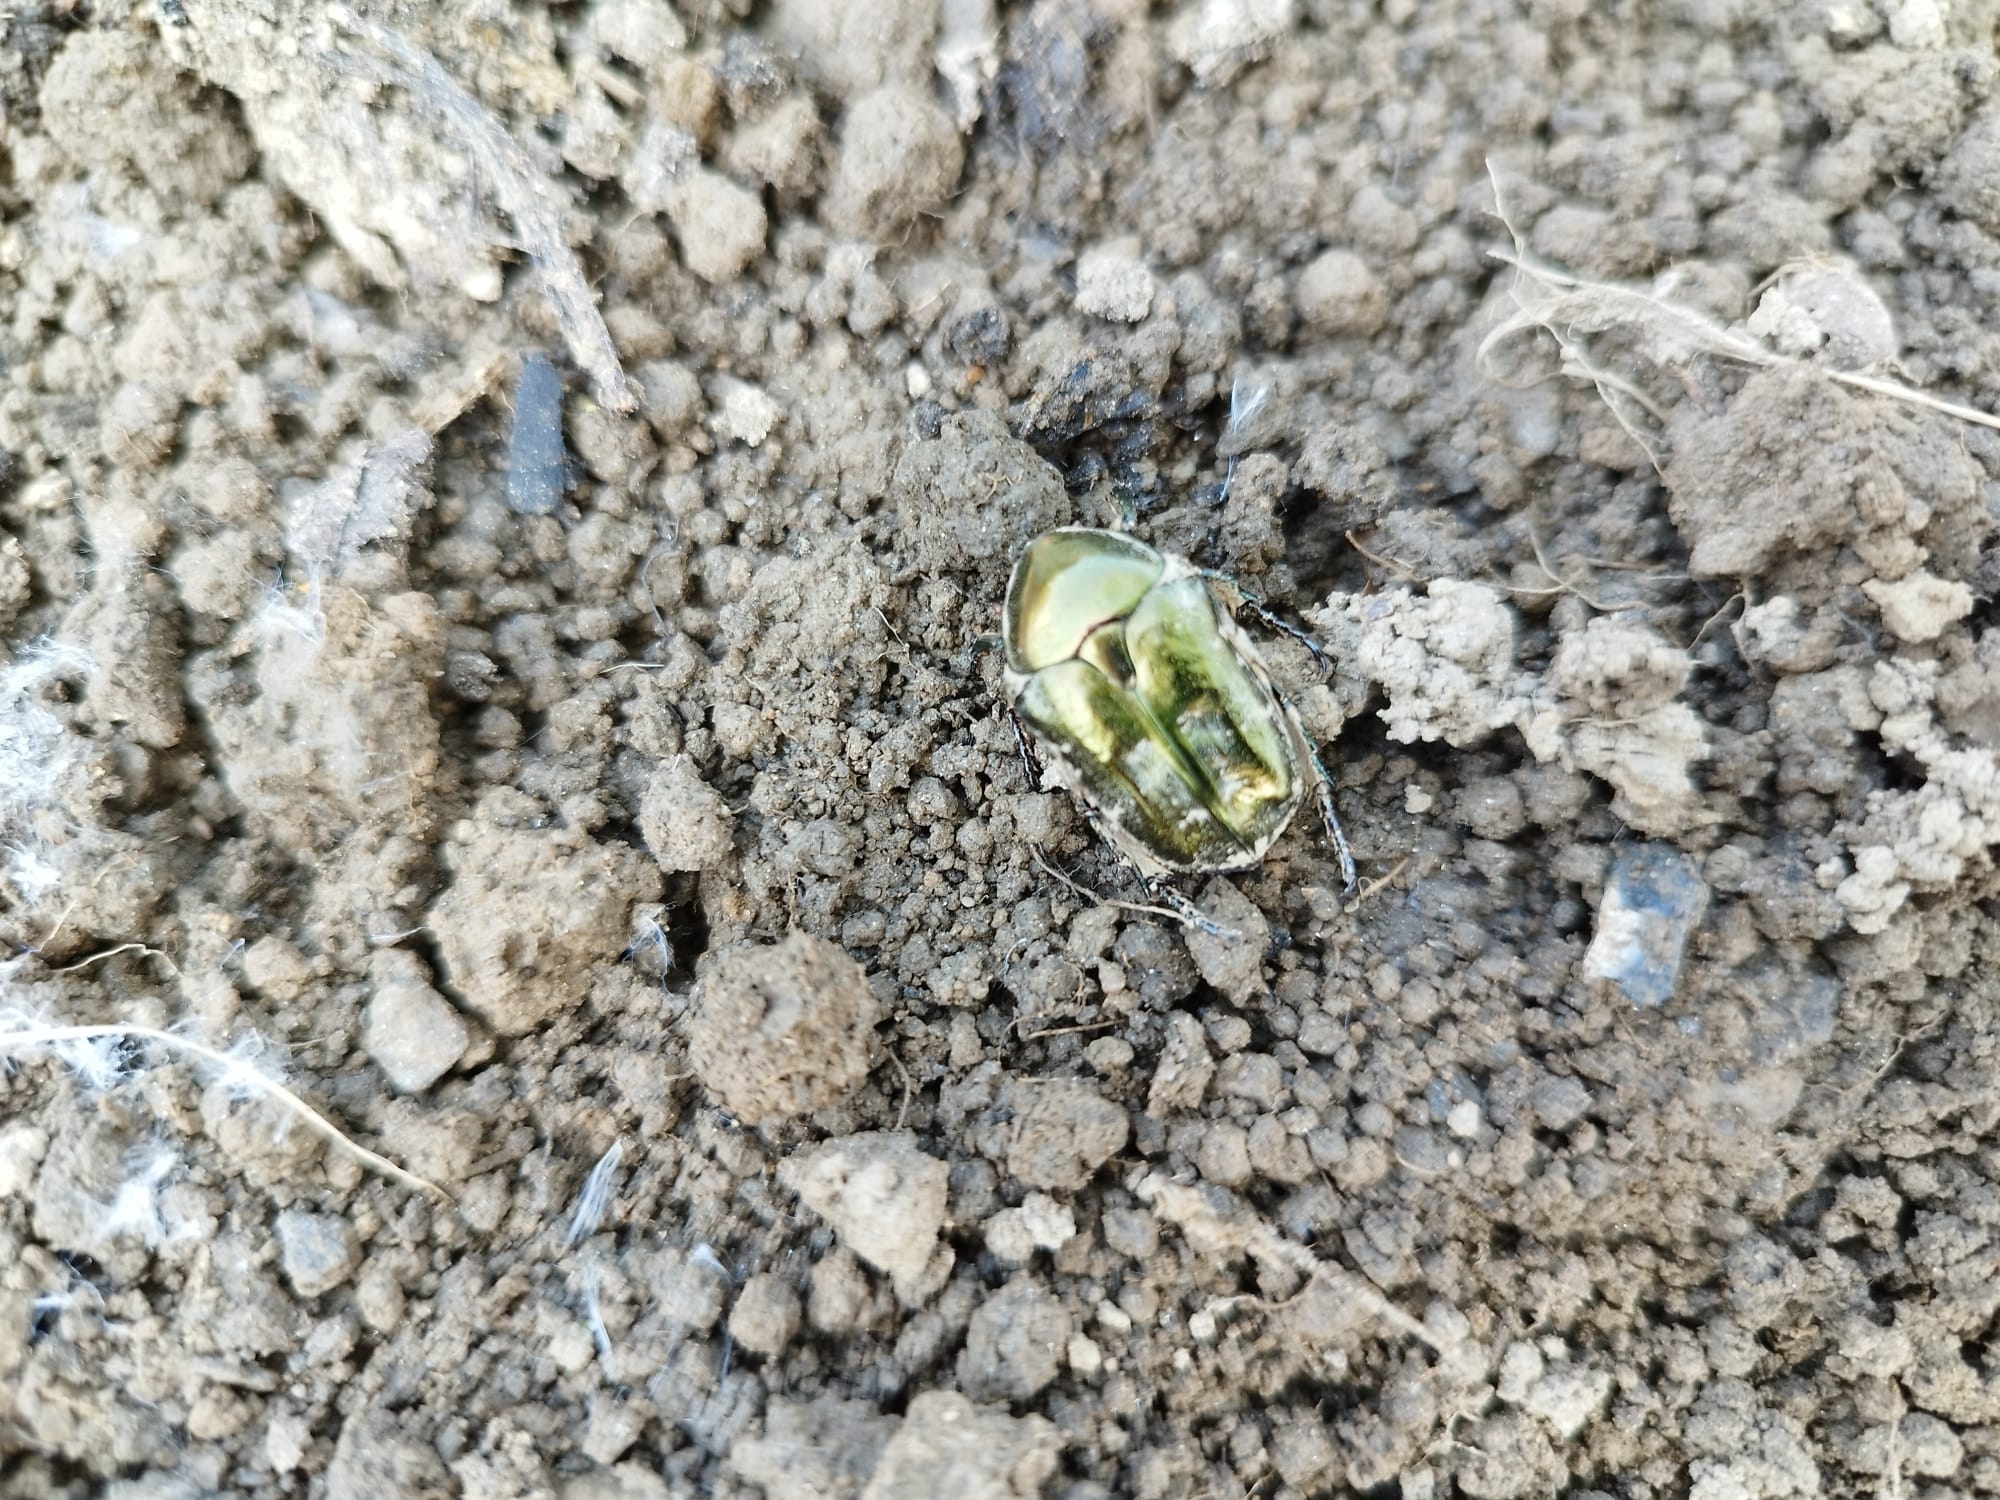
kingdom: Animalia
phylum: Arthropoda
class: Insecta
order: Coleoptera
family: Scarabaeidae
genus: Protaetia
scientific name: Protaetia cuprea
